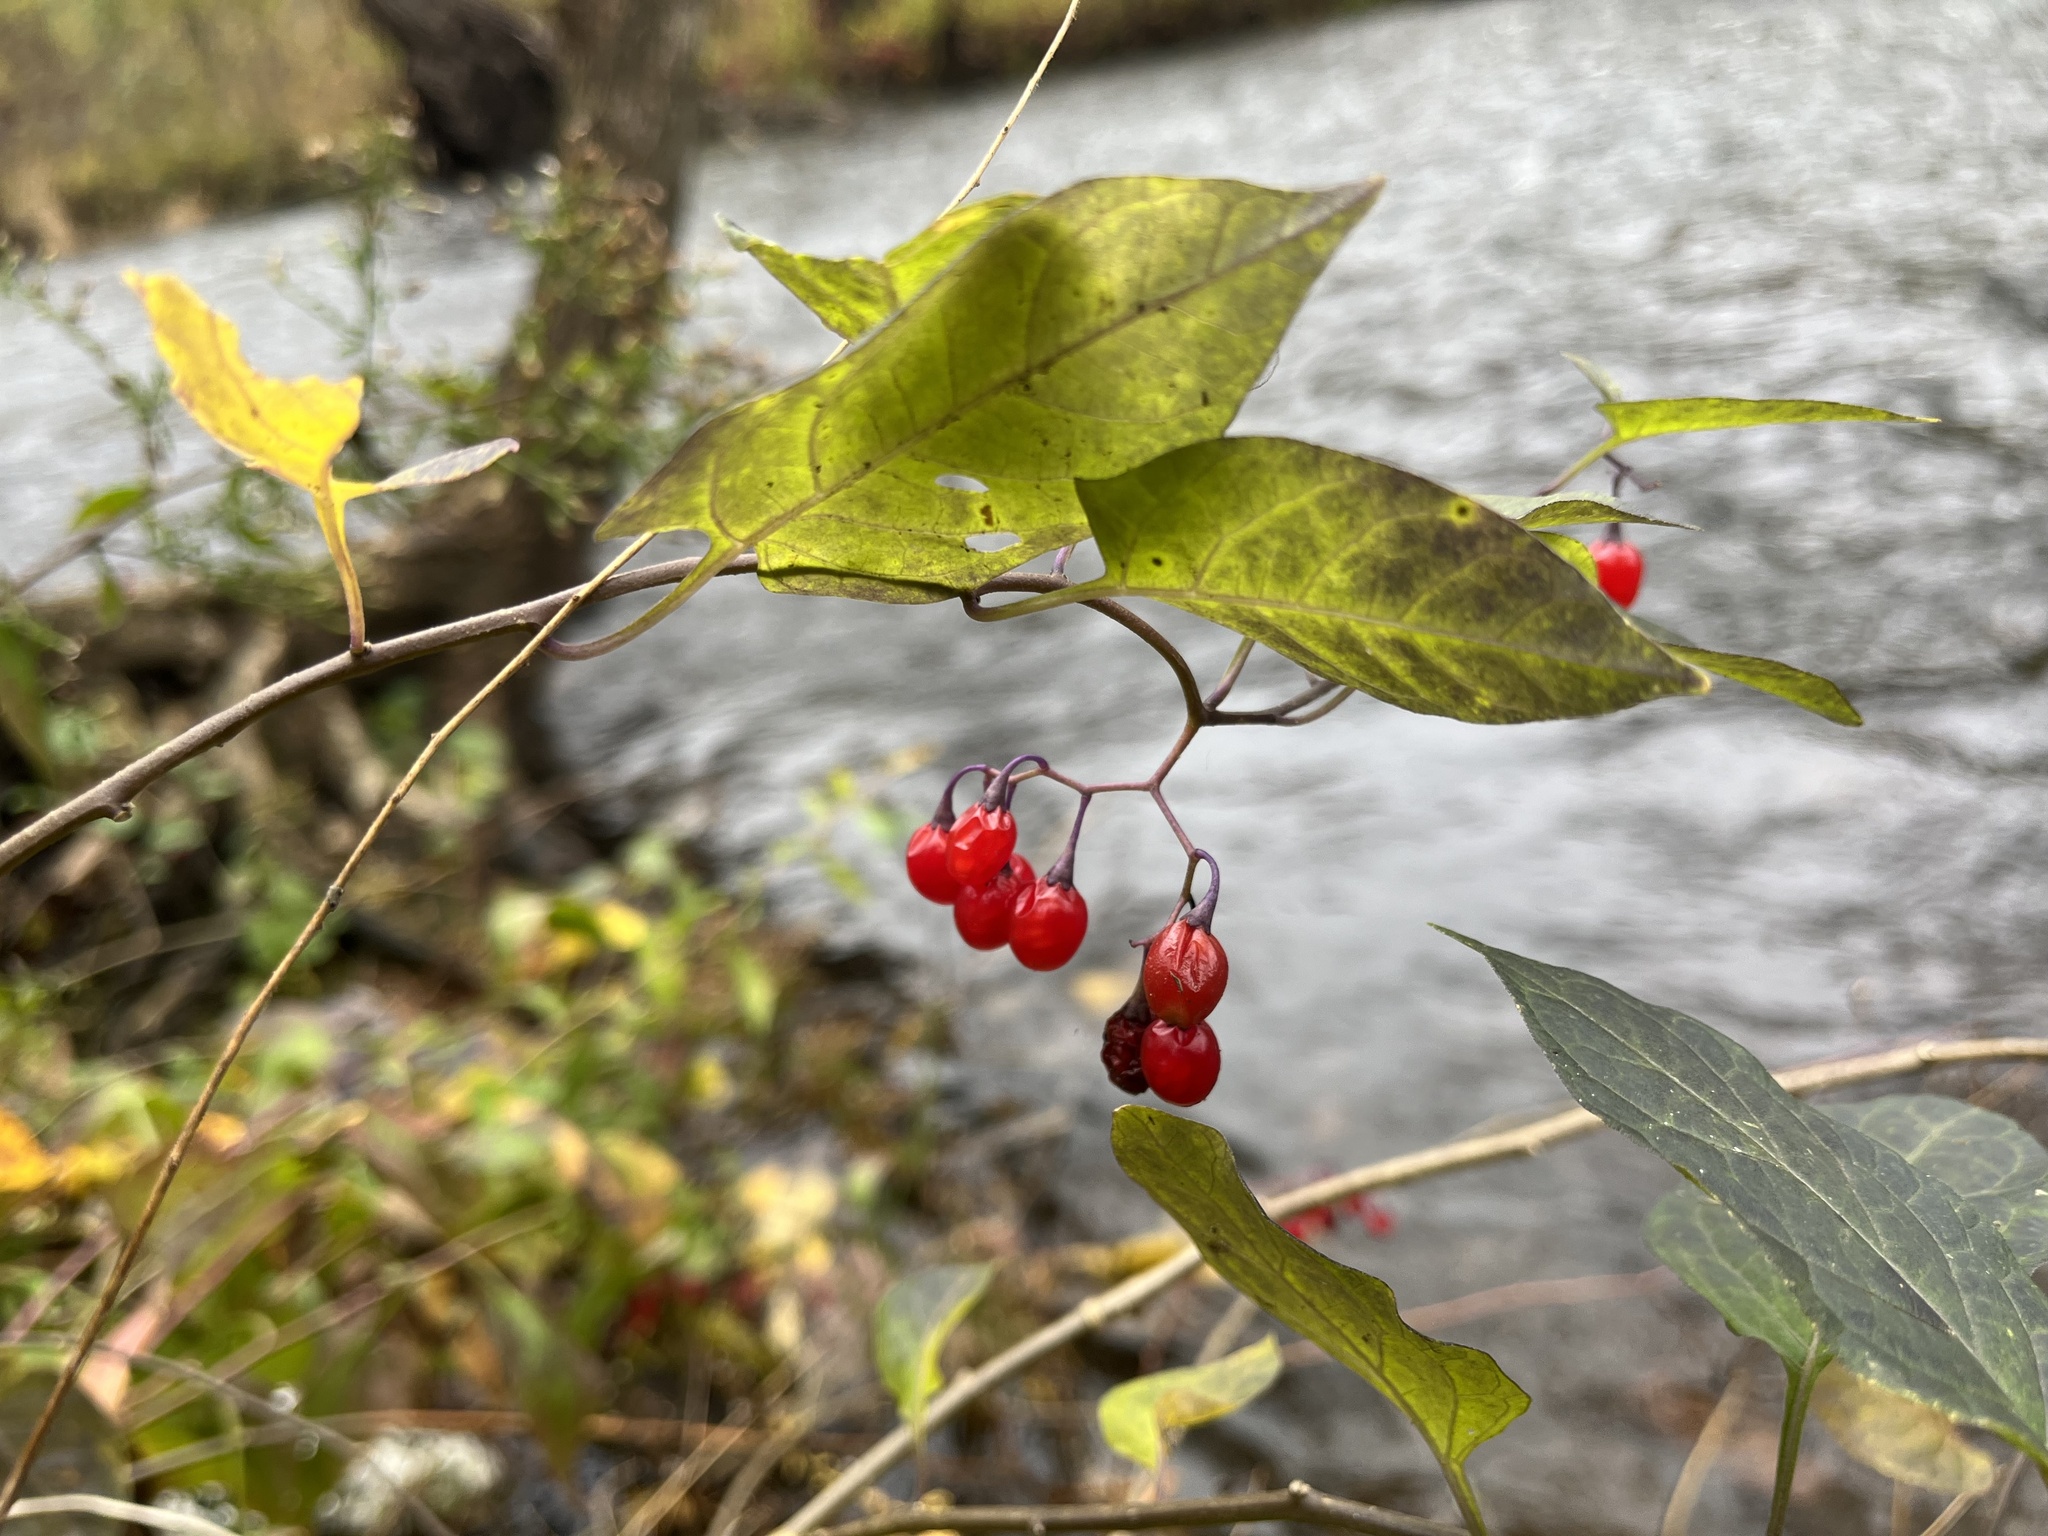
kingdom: Plantae
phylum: Tracheophyta
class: Magnoliopsida
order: Solanales
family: Solanaceae
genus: Solanum
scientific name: Solanum dulcamara
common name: Climbing nightshade
